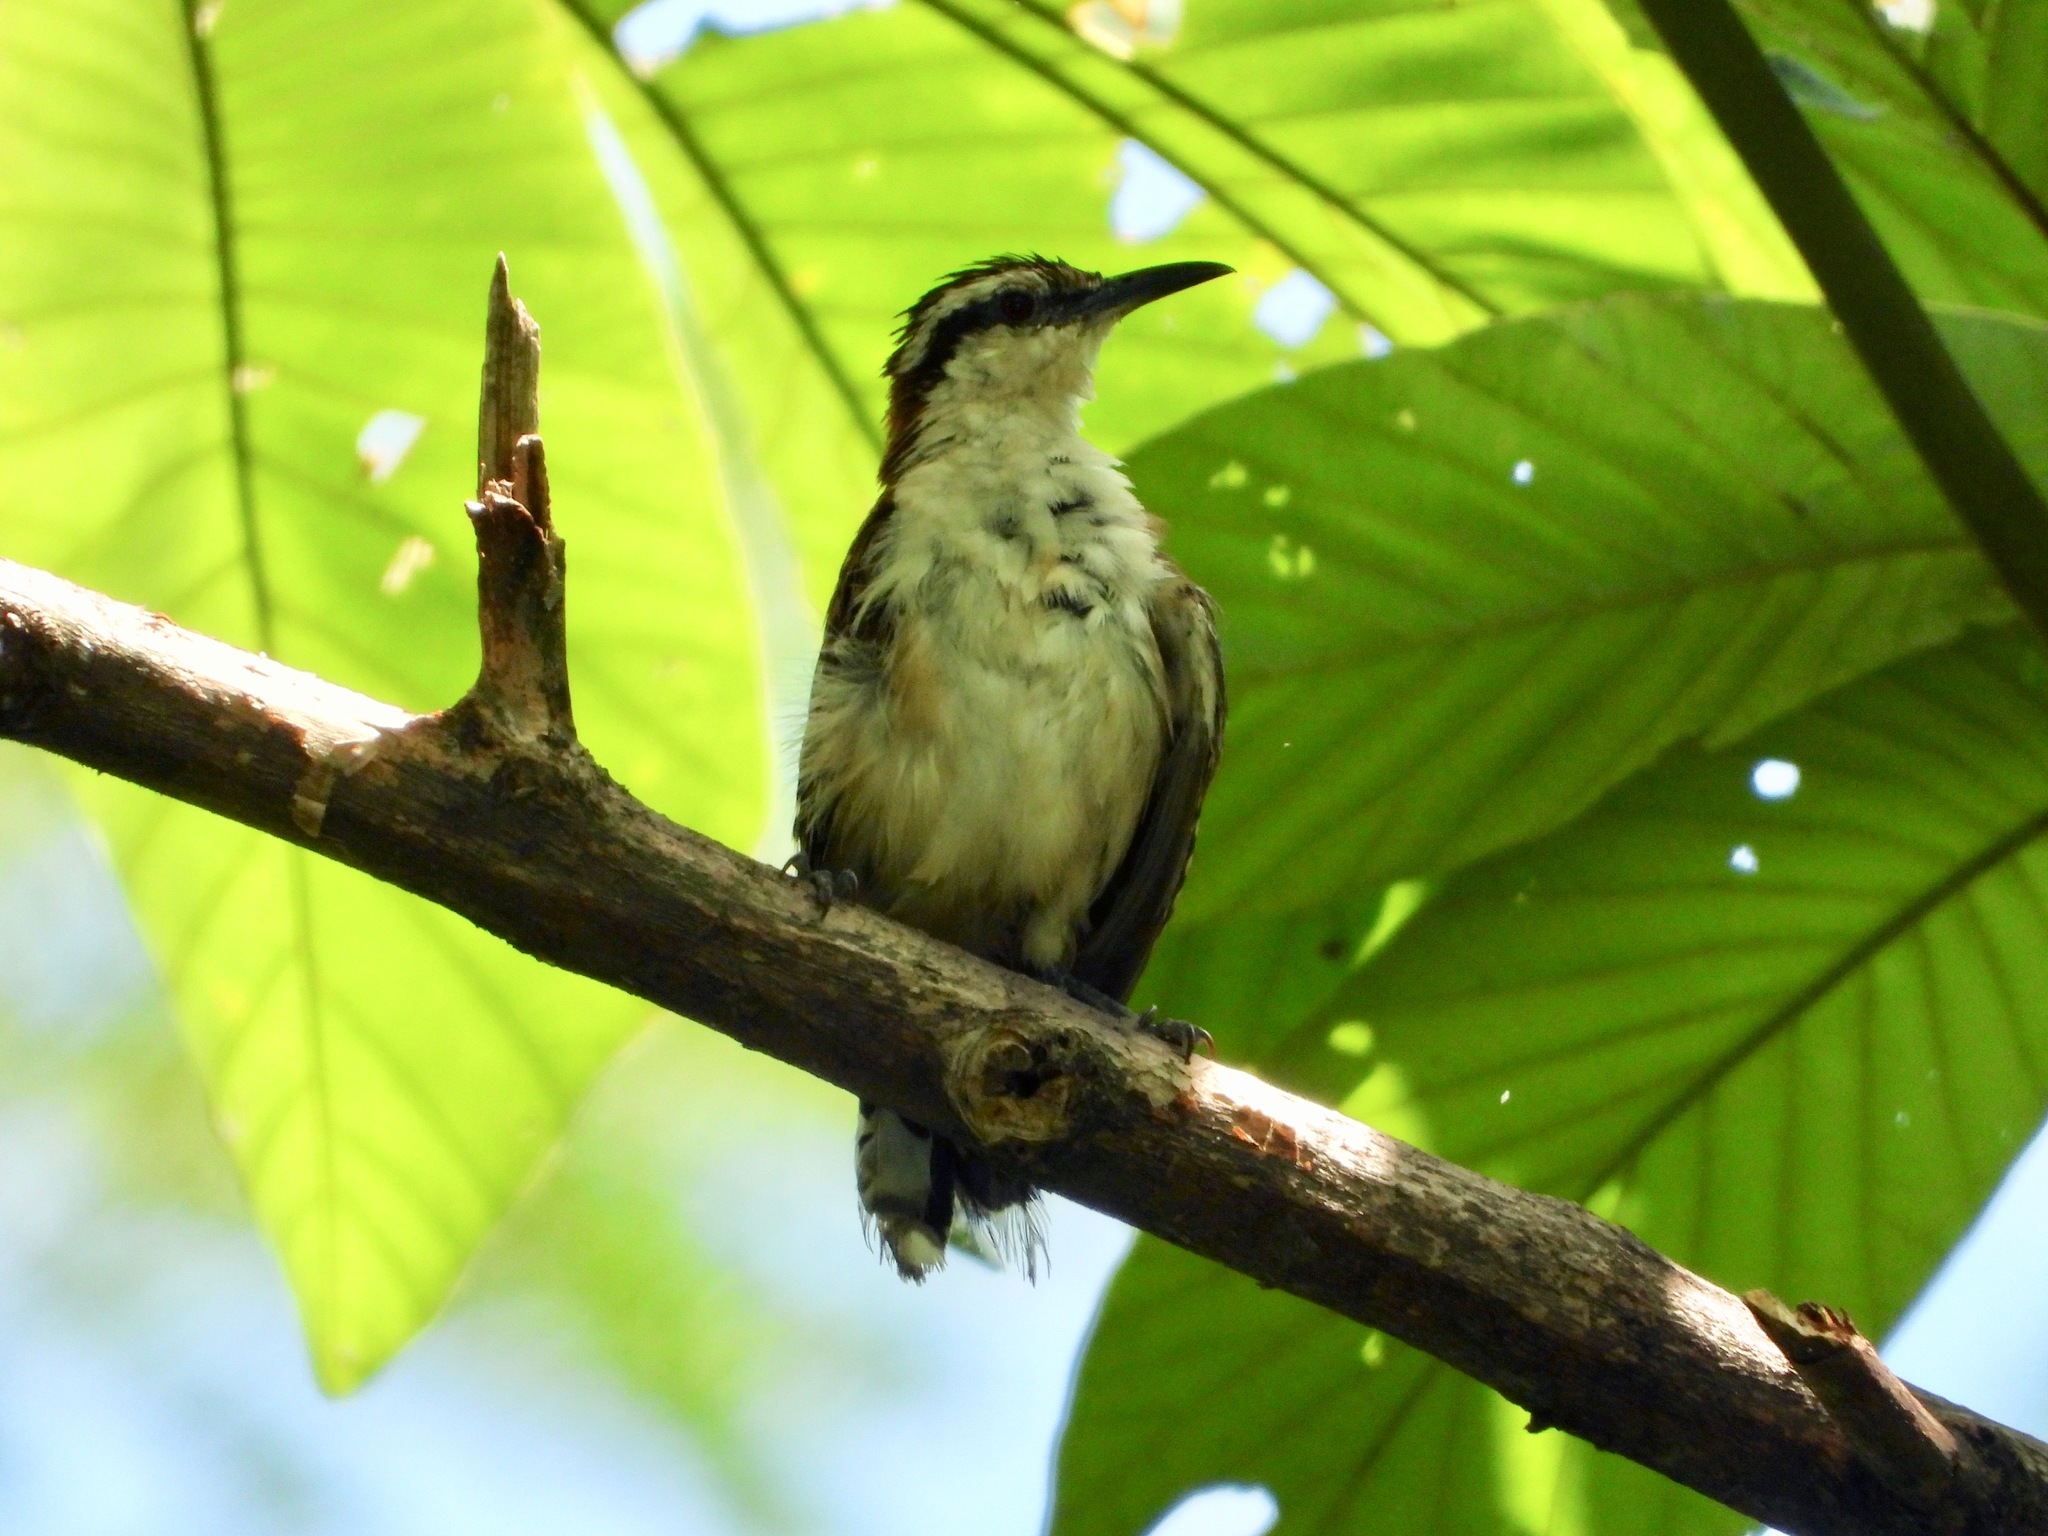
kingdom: Animalia
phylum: Chordata
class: Aves
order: Passeriformes
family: Troglodytidae
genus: Campylorhynchus
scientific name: Campylorhynchus rufinucha
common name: Rufous-naped wren
